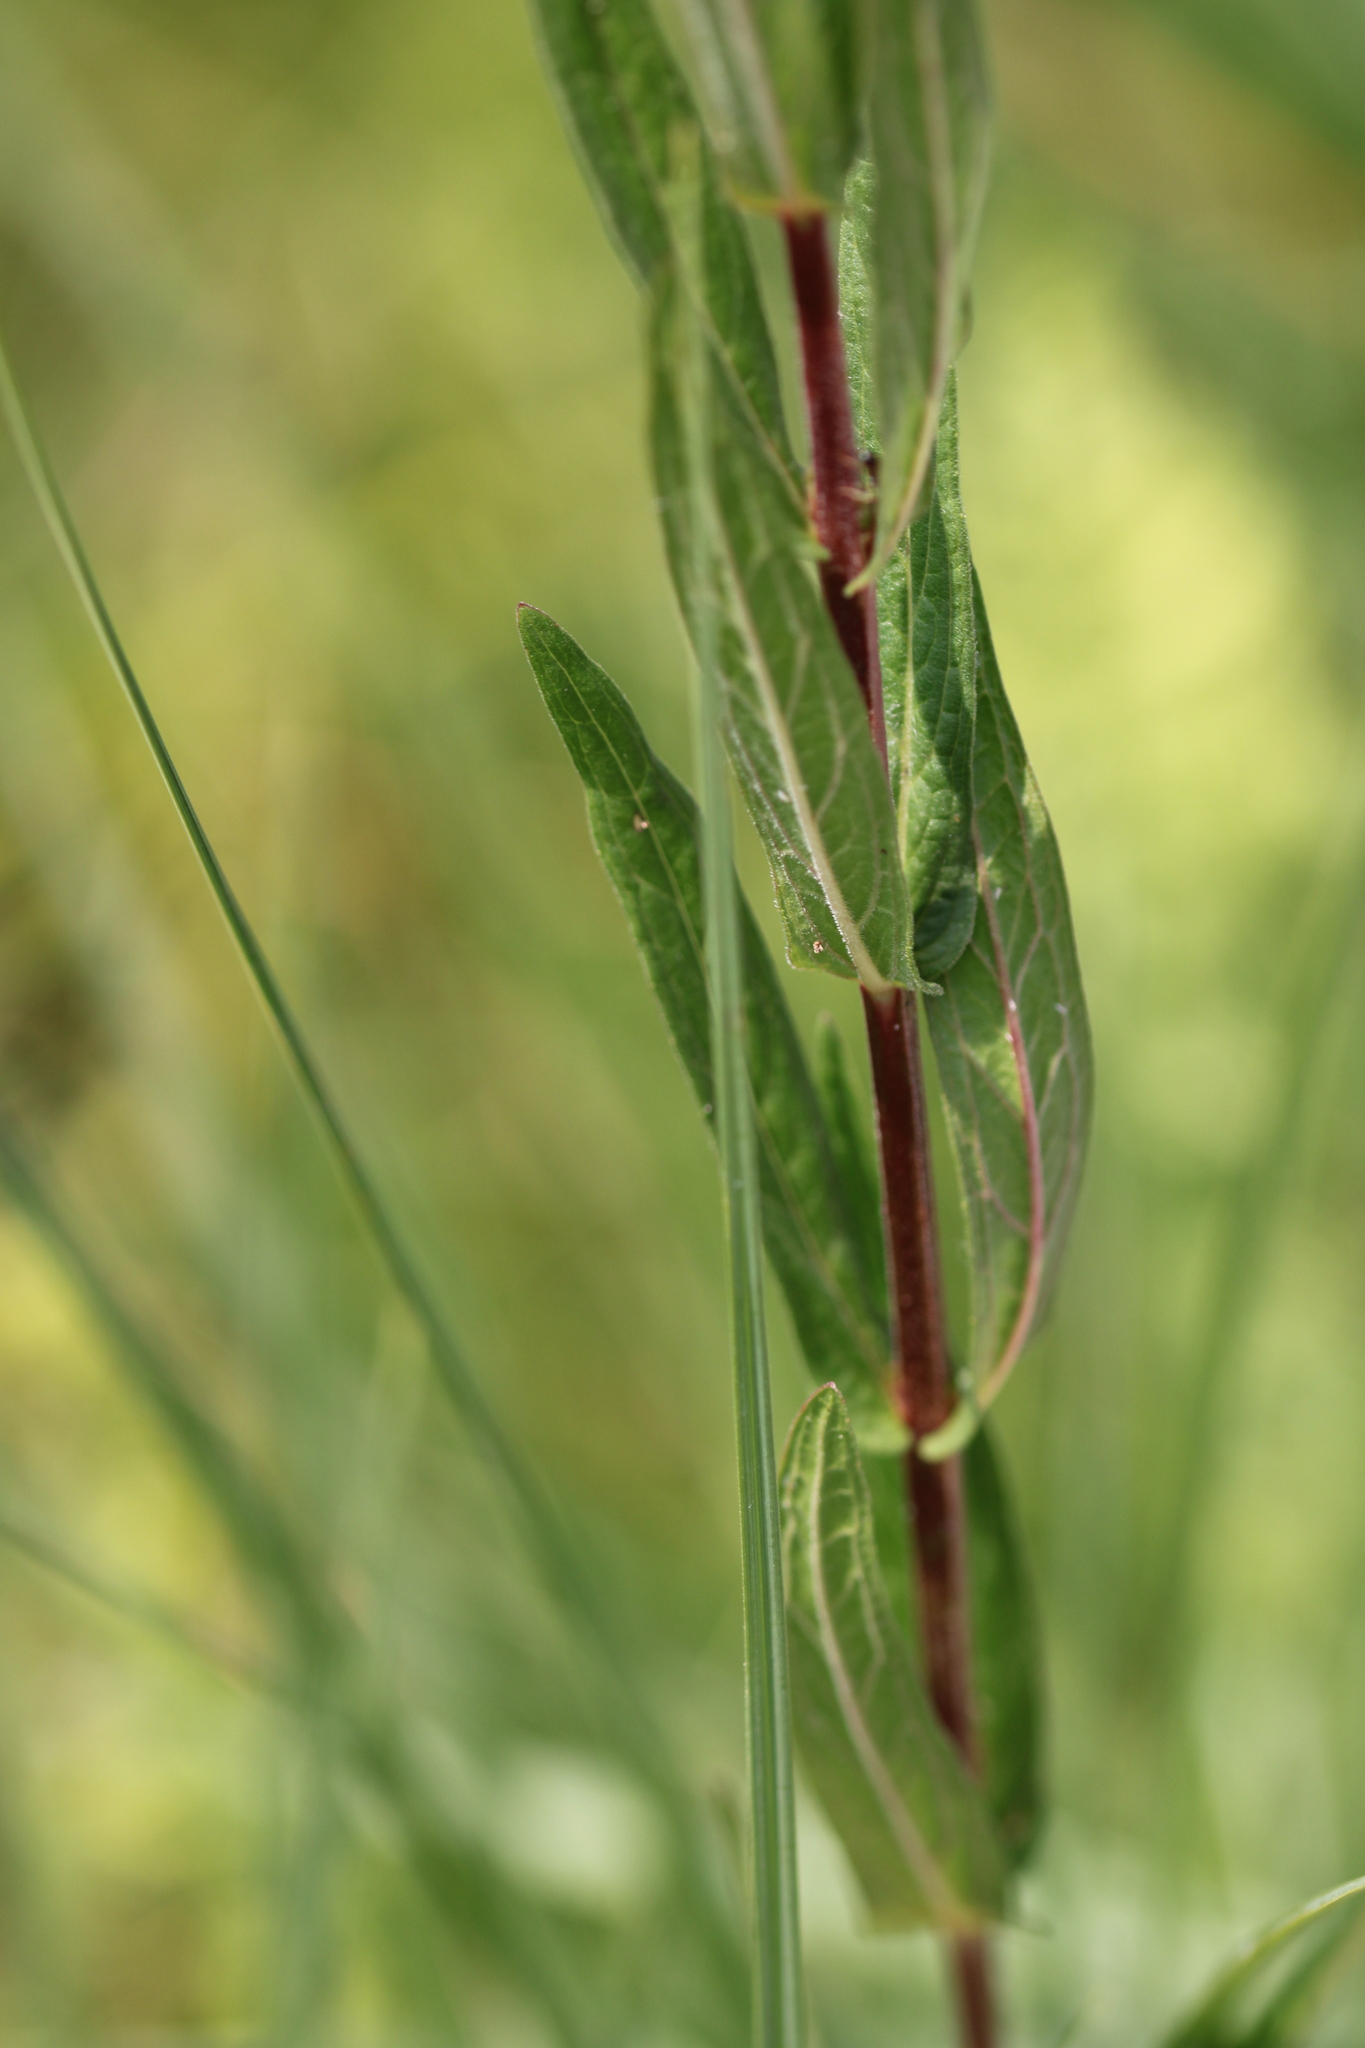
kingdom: Plantae
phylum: Tracheophyta
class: Magnoliopsida
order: Myrtales
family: Lythraceae
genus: Lythrum
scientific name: Lythrum salicaria
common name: Purple loosestrife
